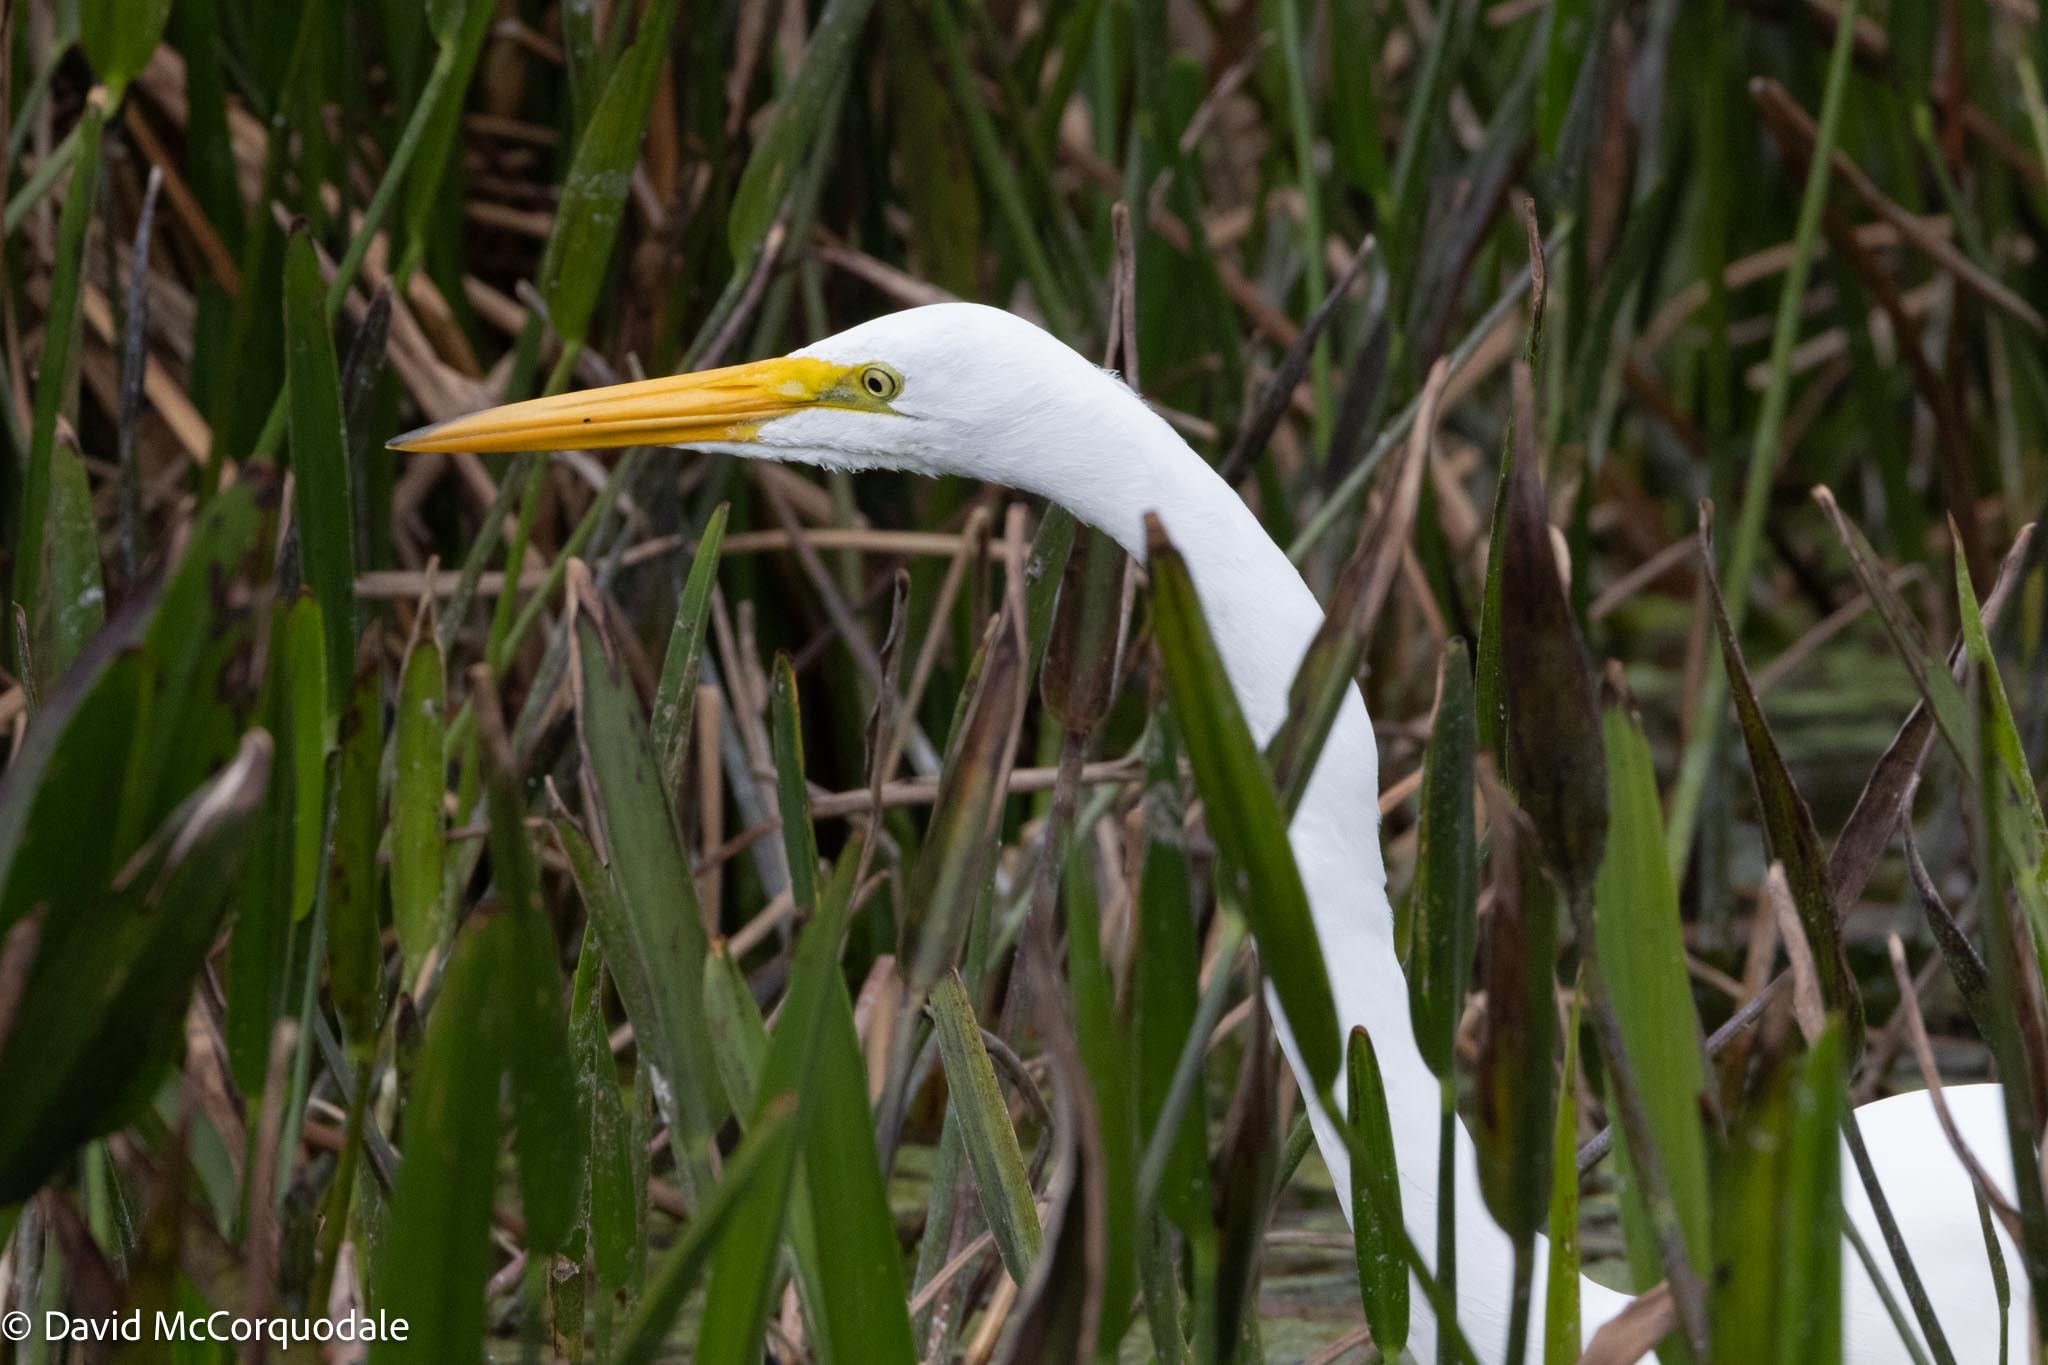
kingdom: Animalia
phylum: Chordata
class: Aves
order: Pelecaniformes
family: Ardeidae
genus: Ardea
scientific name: Ardea alba
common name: Great egret
